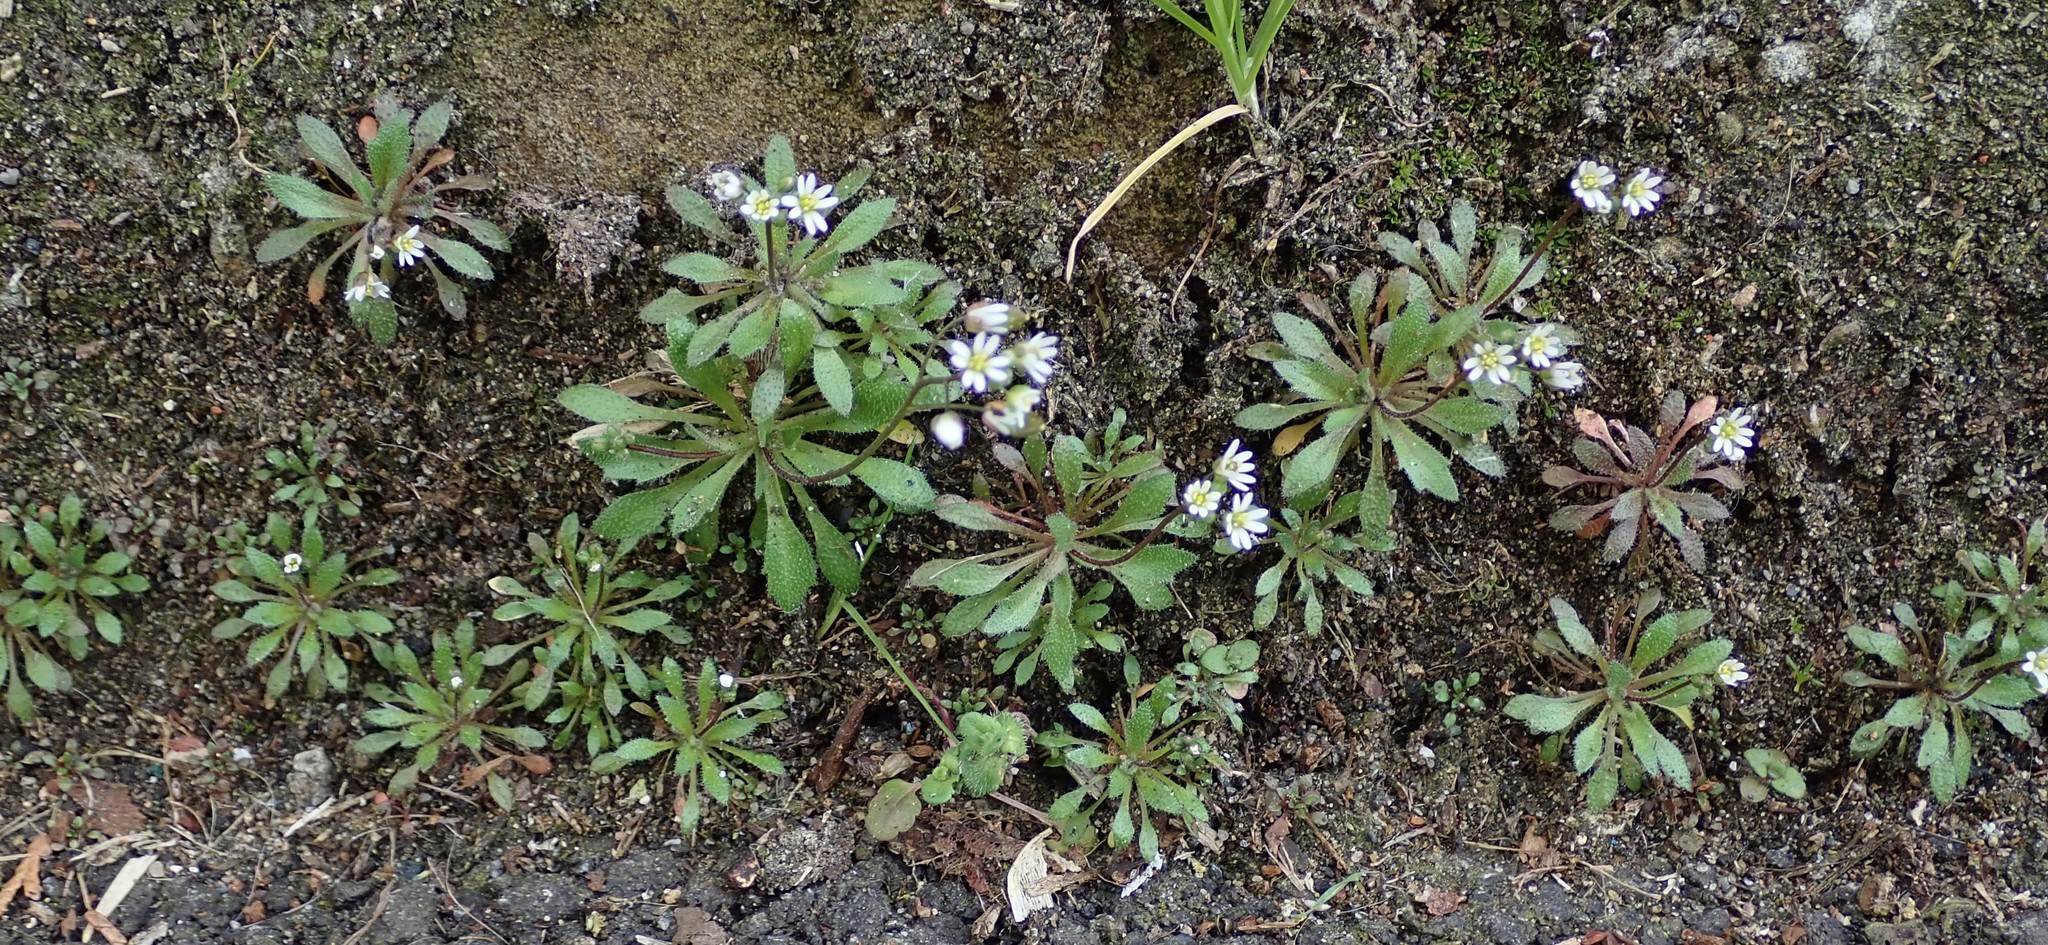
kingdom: Plantae
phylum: Tracheophyta
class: Magnoliopsida
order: Brassicales
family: Brassicaceae
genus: Draba
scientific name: Draba verna
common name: Spring draba
